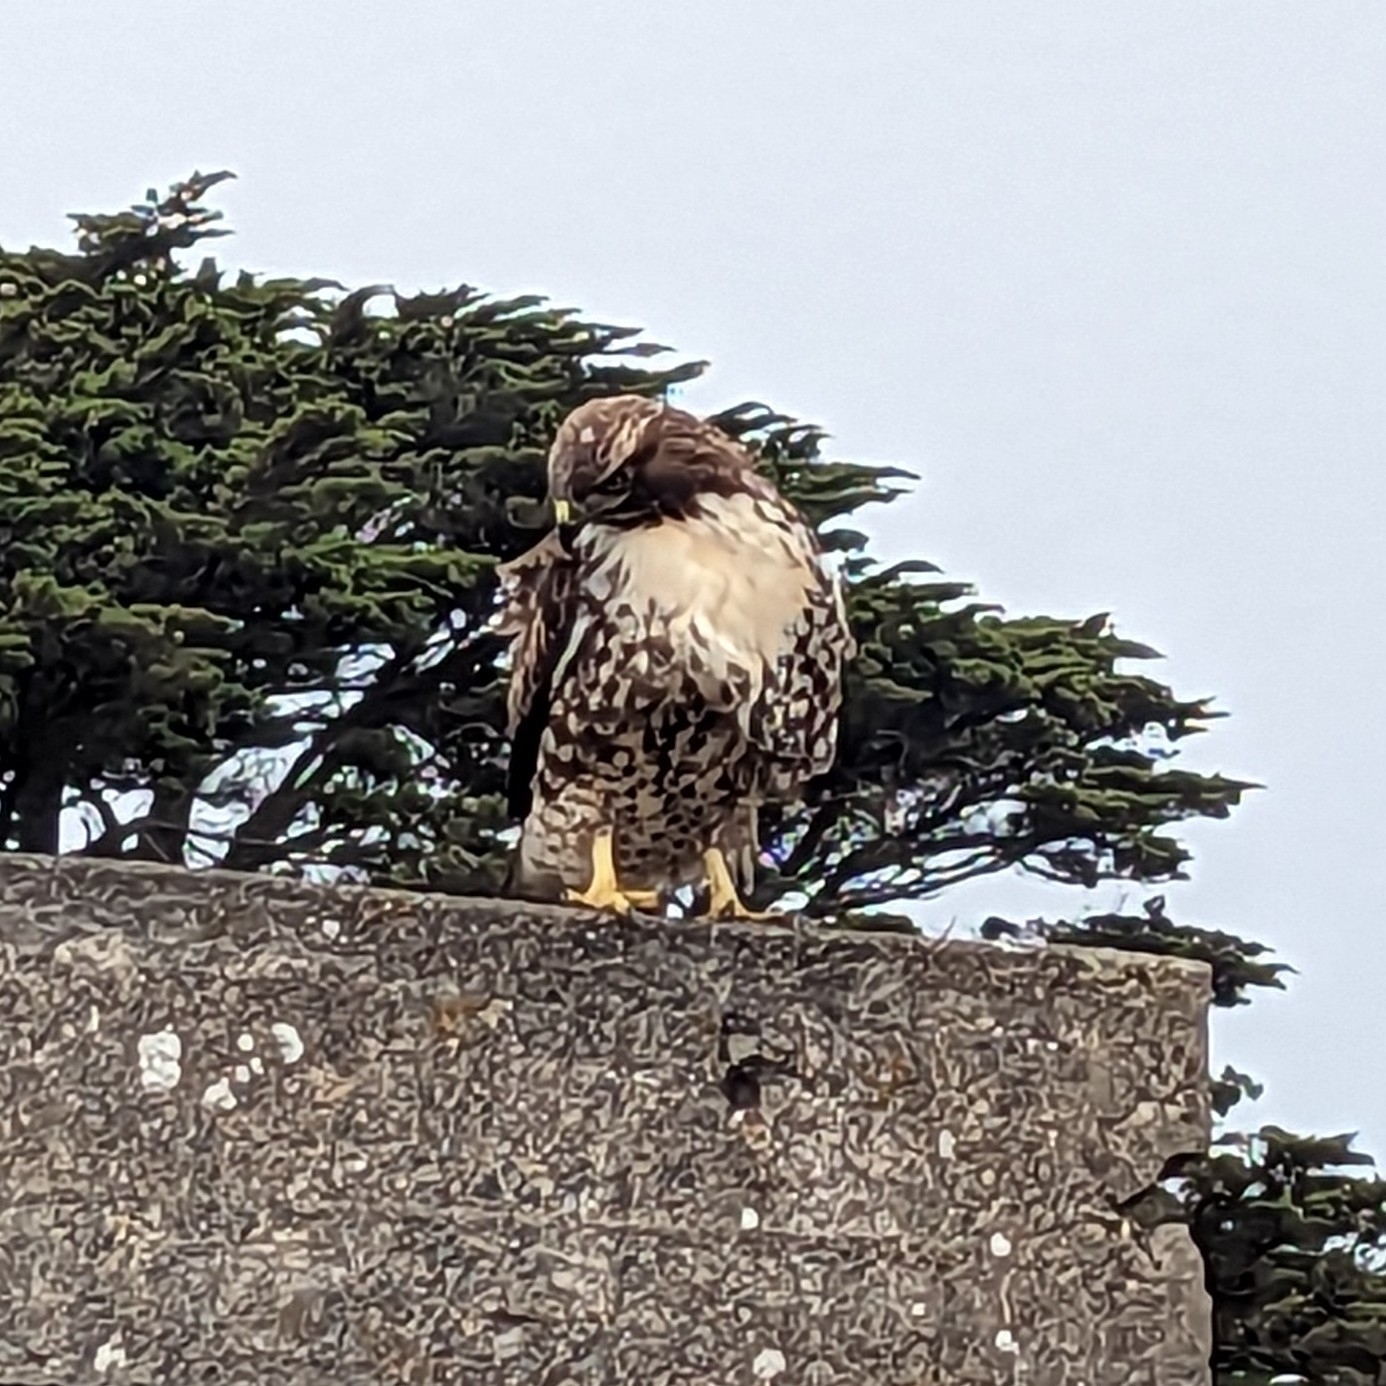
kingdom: Animalia
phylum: Chordata
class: Aves
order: Accipitriformes
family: Accipitridae
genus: Buteo
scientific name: Buteo jamaicensis
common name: Red-tailed hawk
